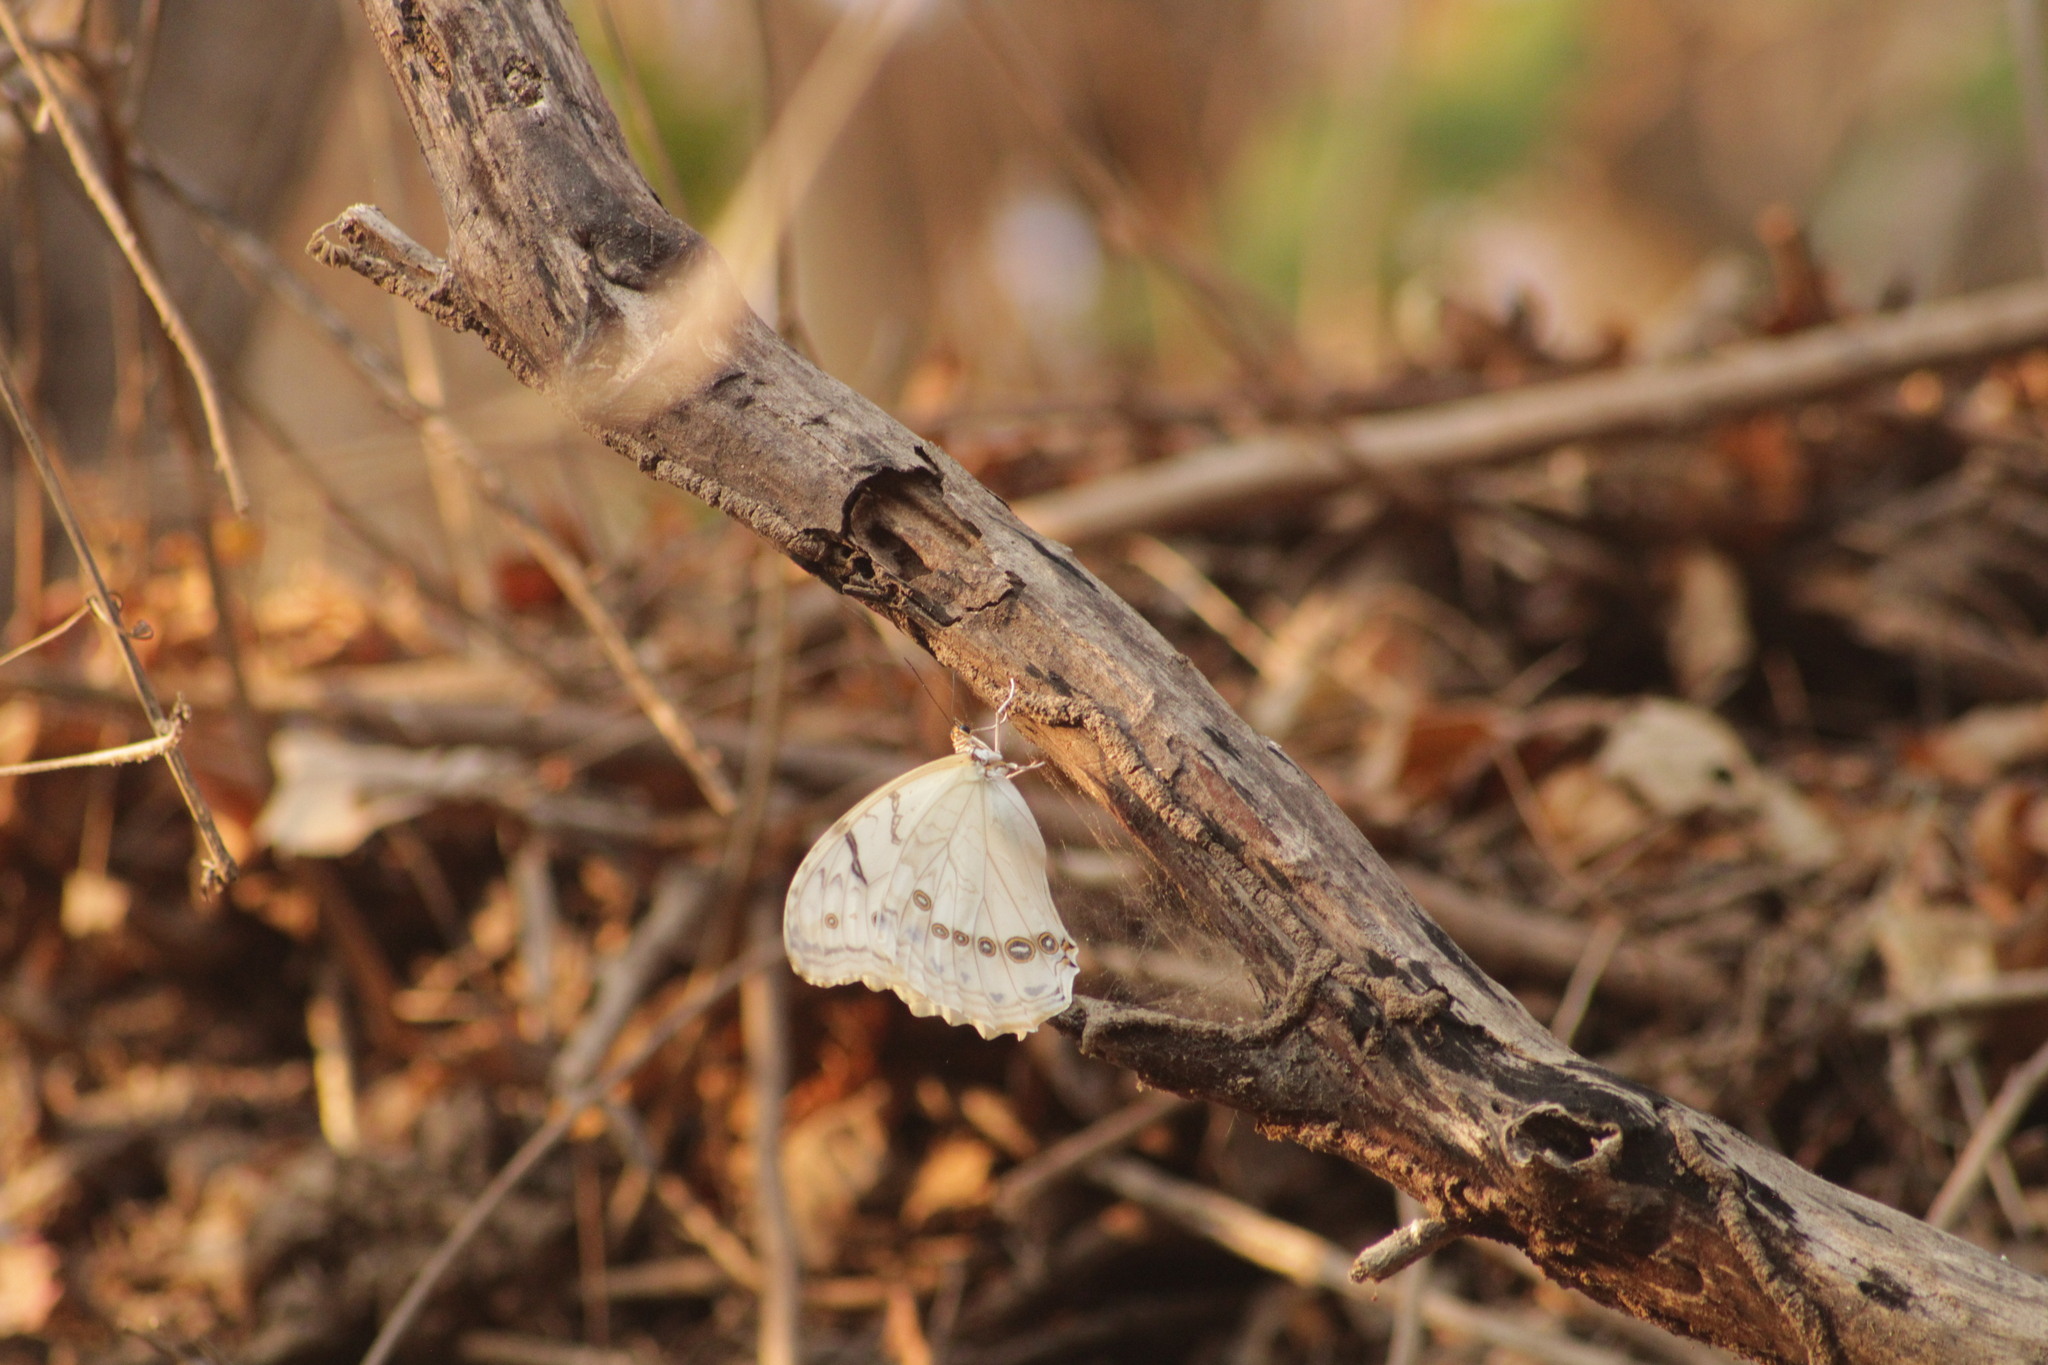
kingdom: Animalia
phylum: Arthropoda
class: Insecta
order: Lepidoptera
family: Nymphalidae
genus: Morpho
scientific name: Morpho polyphemus
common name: White morpho
